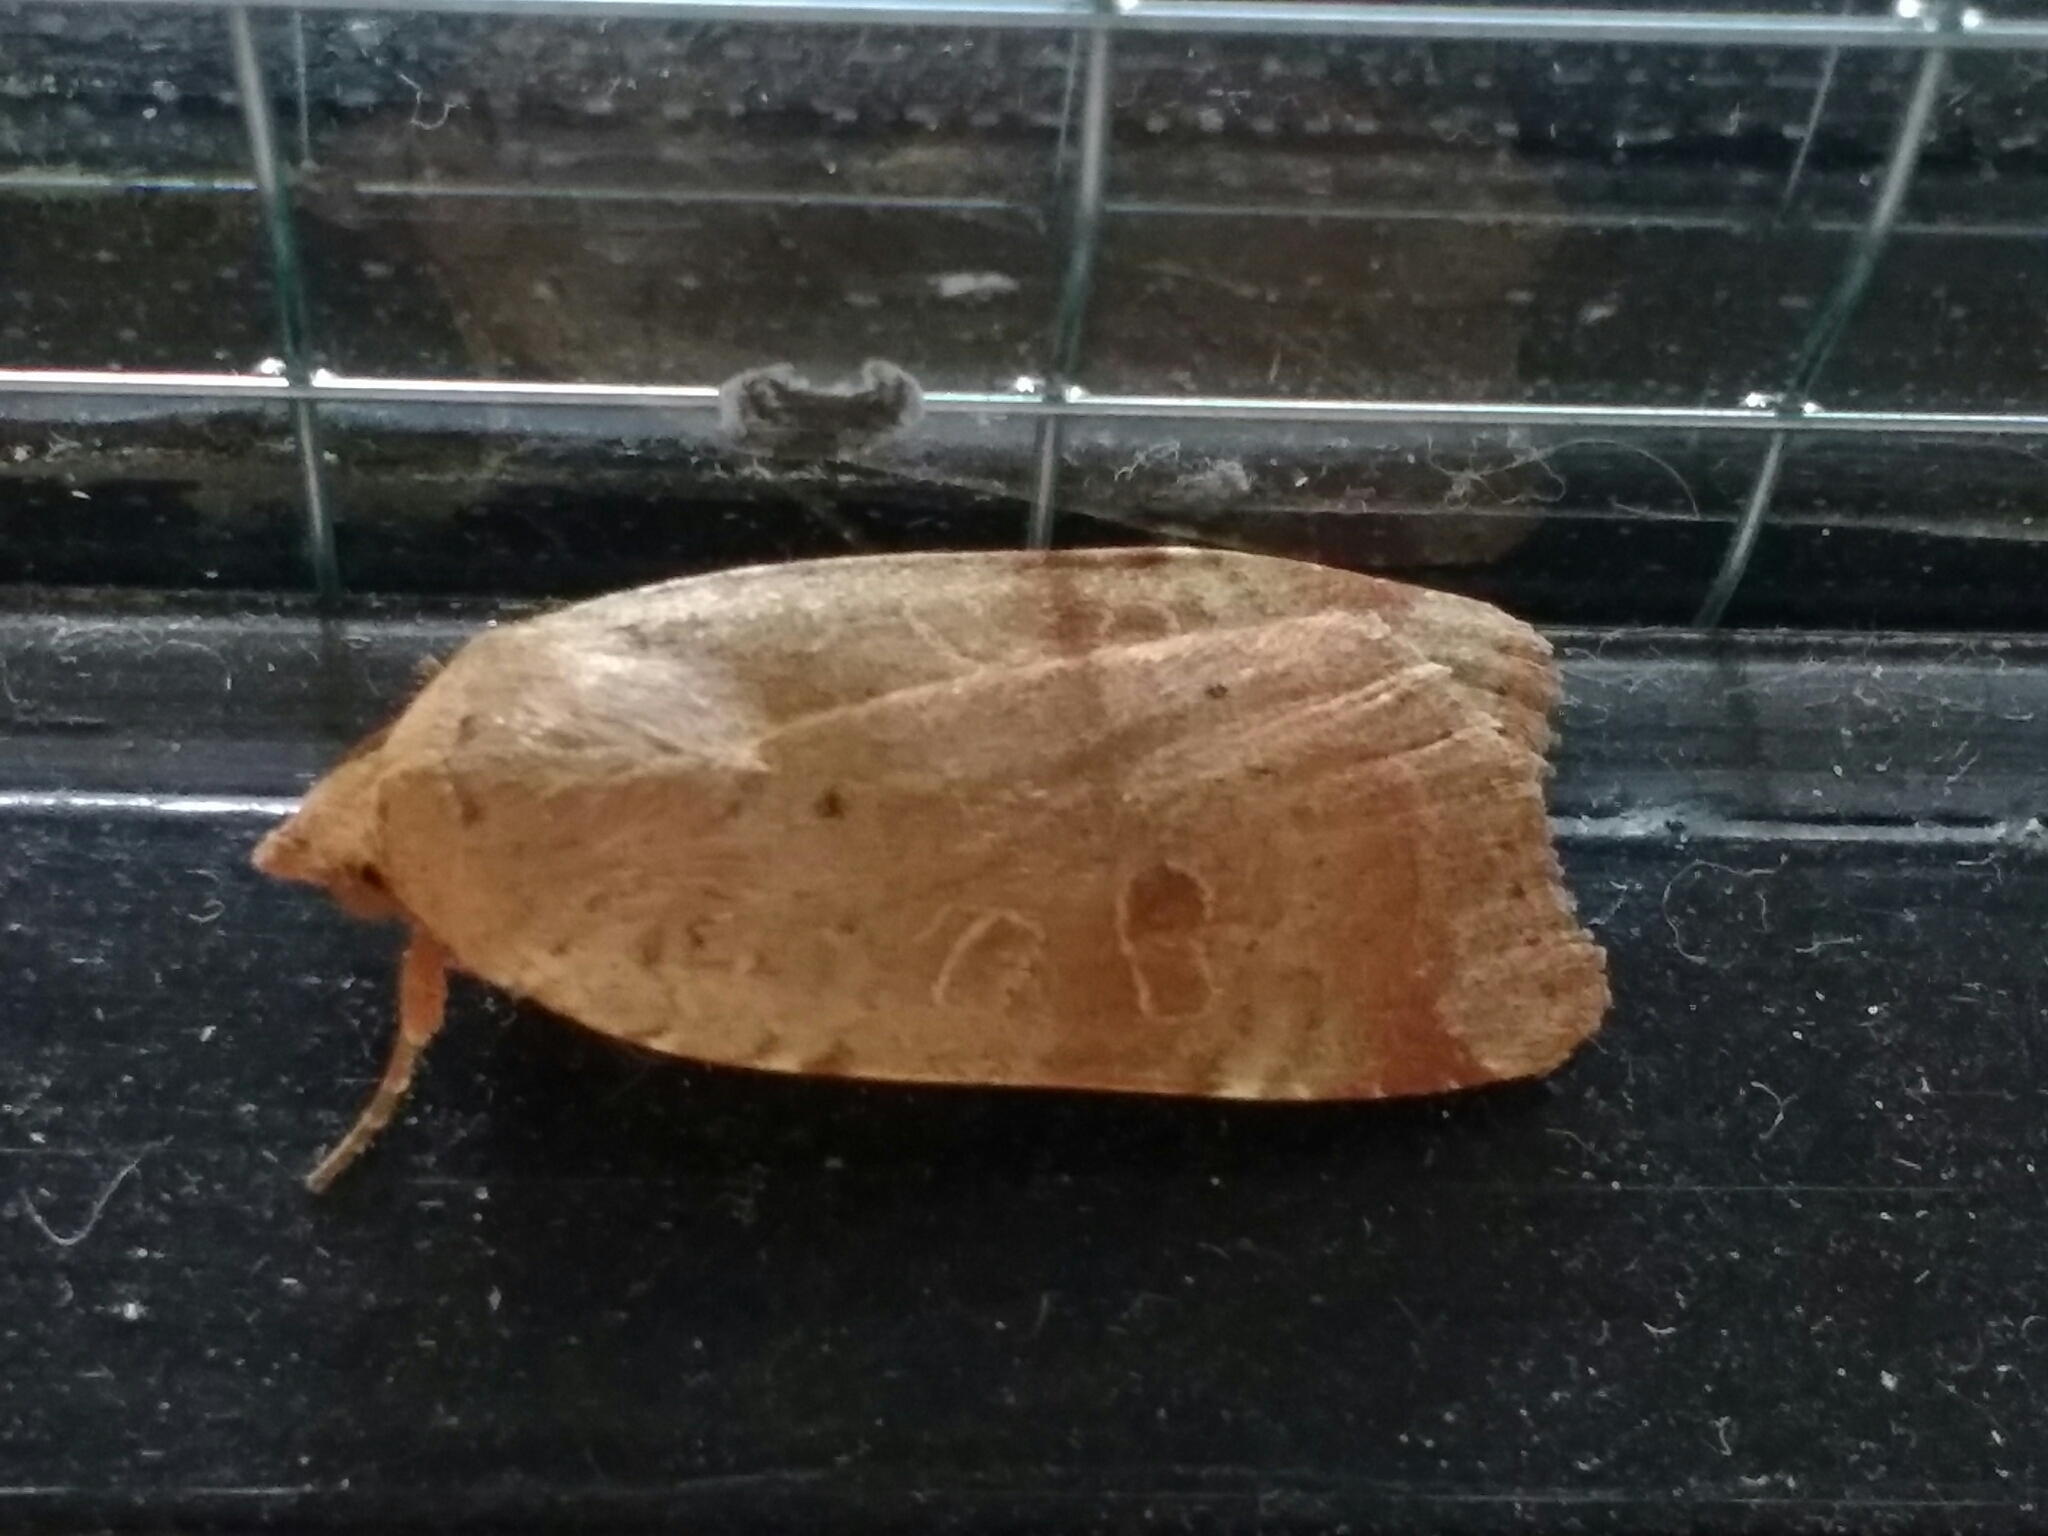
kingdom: Animalia
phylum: Arthropoda
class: Insecta
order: Lepidoptera
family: Noctuidae
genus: Noctua
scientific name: Noctua comes
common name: Lesser yellow underwing
